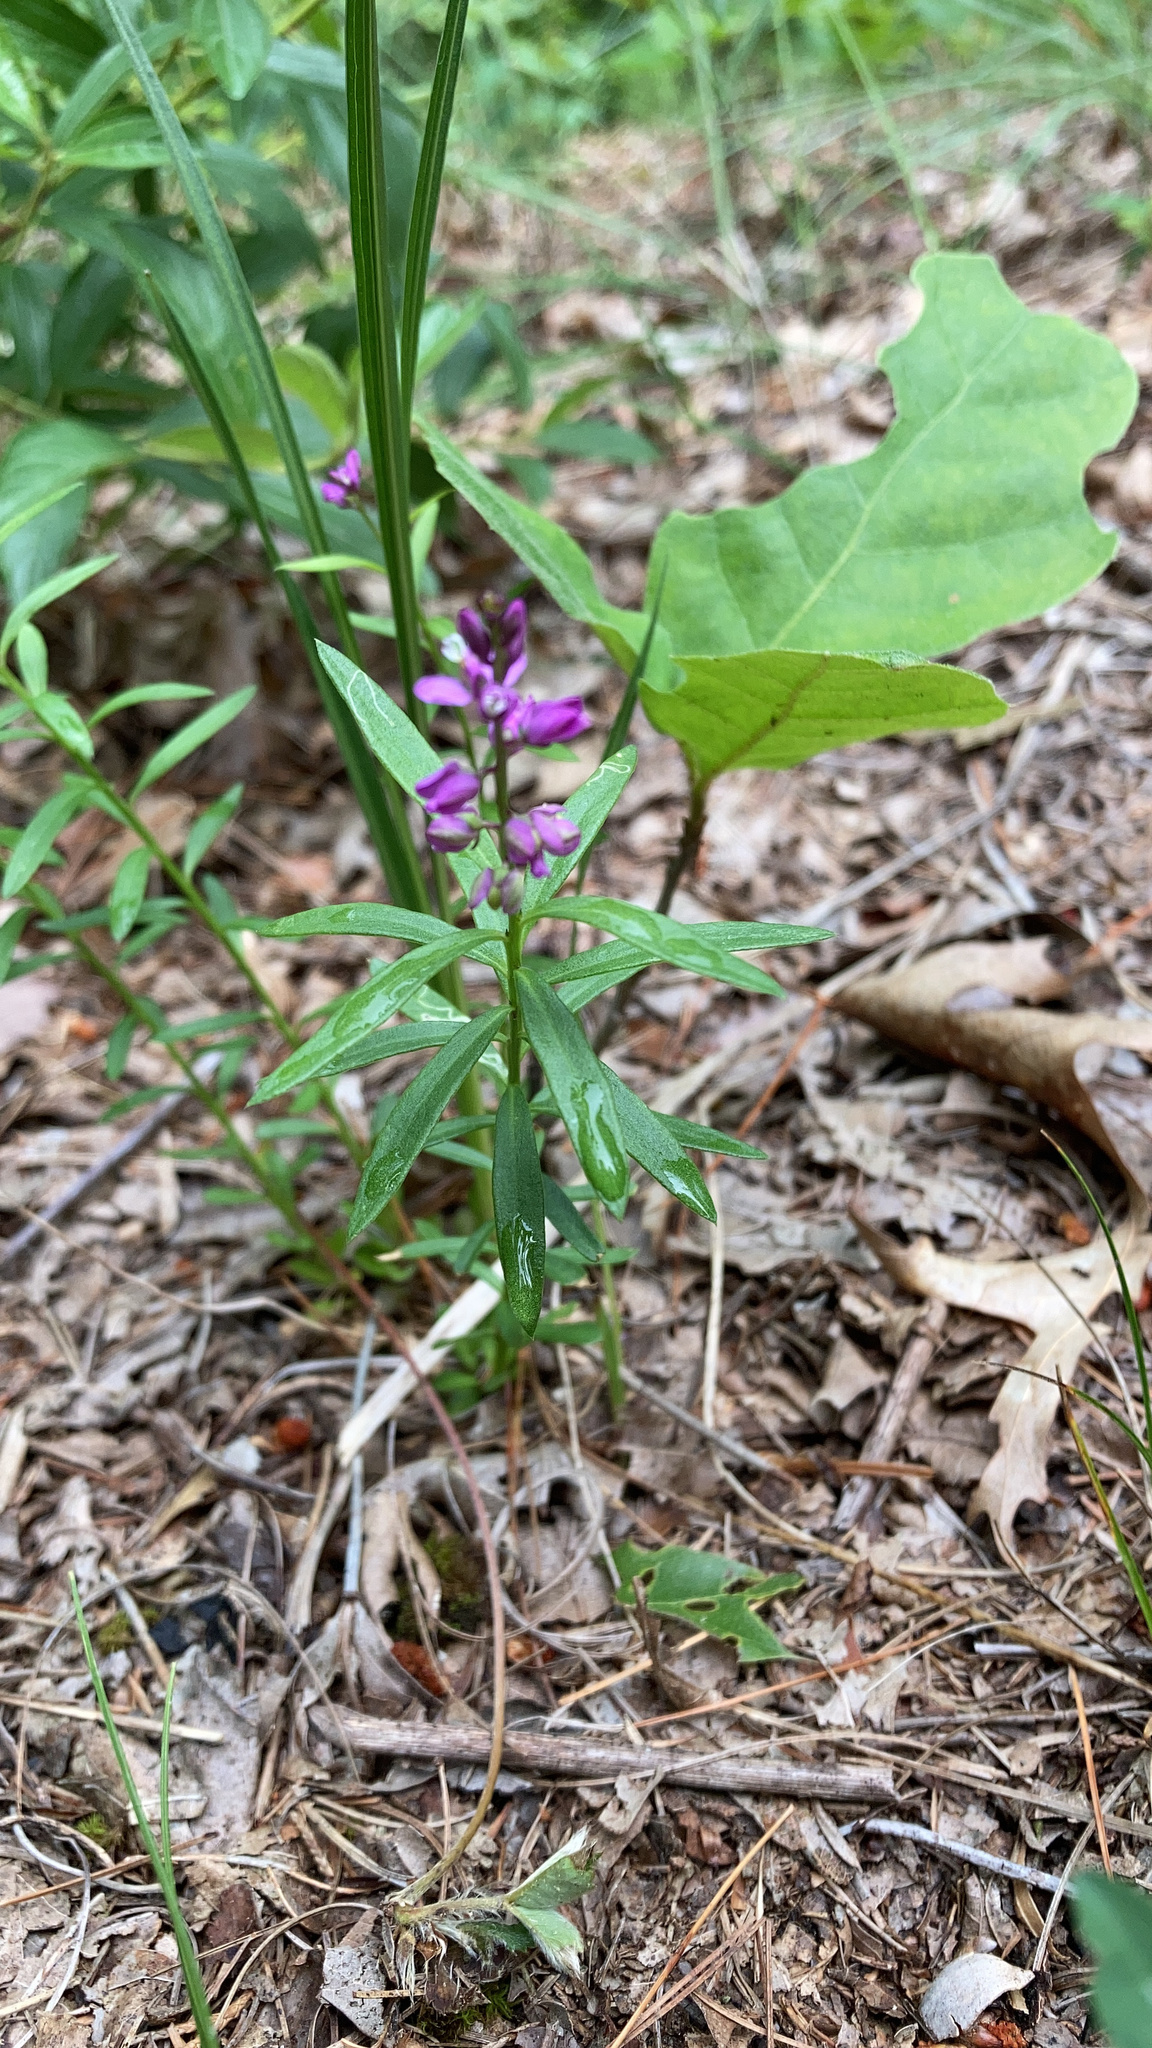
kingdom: Plantae
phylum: Tracheophyta
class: Magnoliopsida
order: Fabales
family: Polygalaceae
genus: Polygala
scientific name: Polygala polygama
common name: Bitter milkwort
